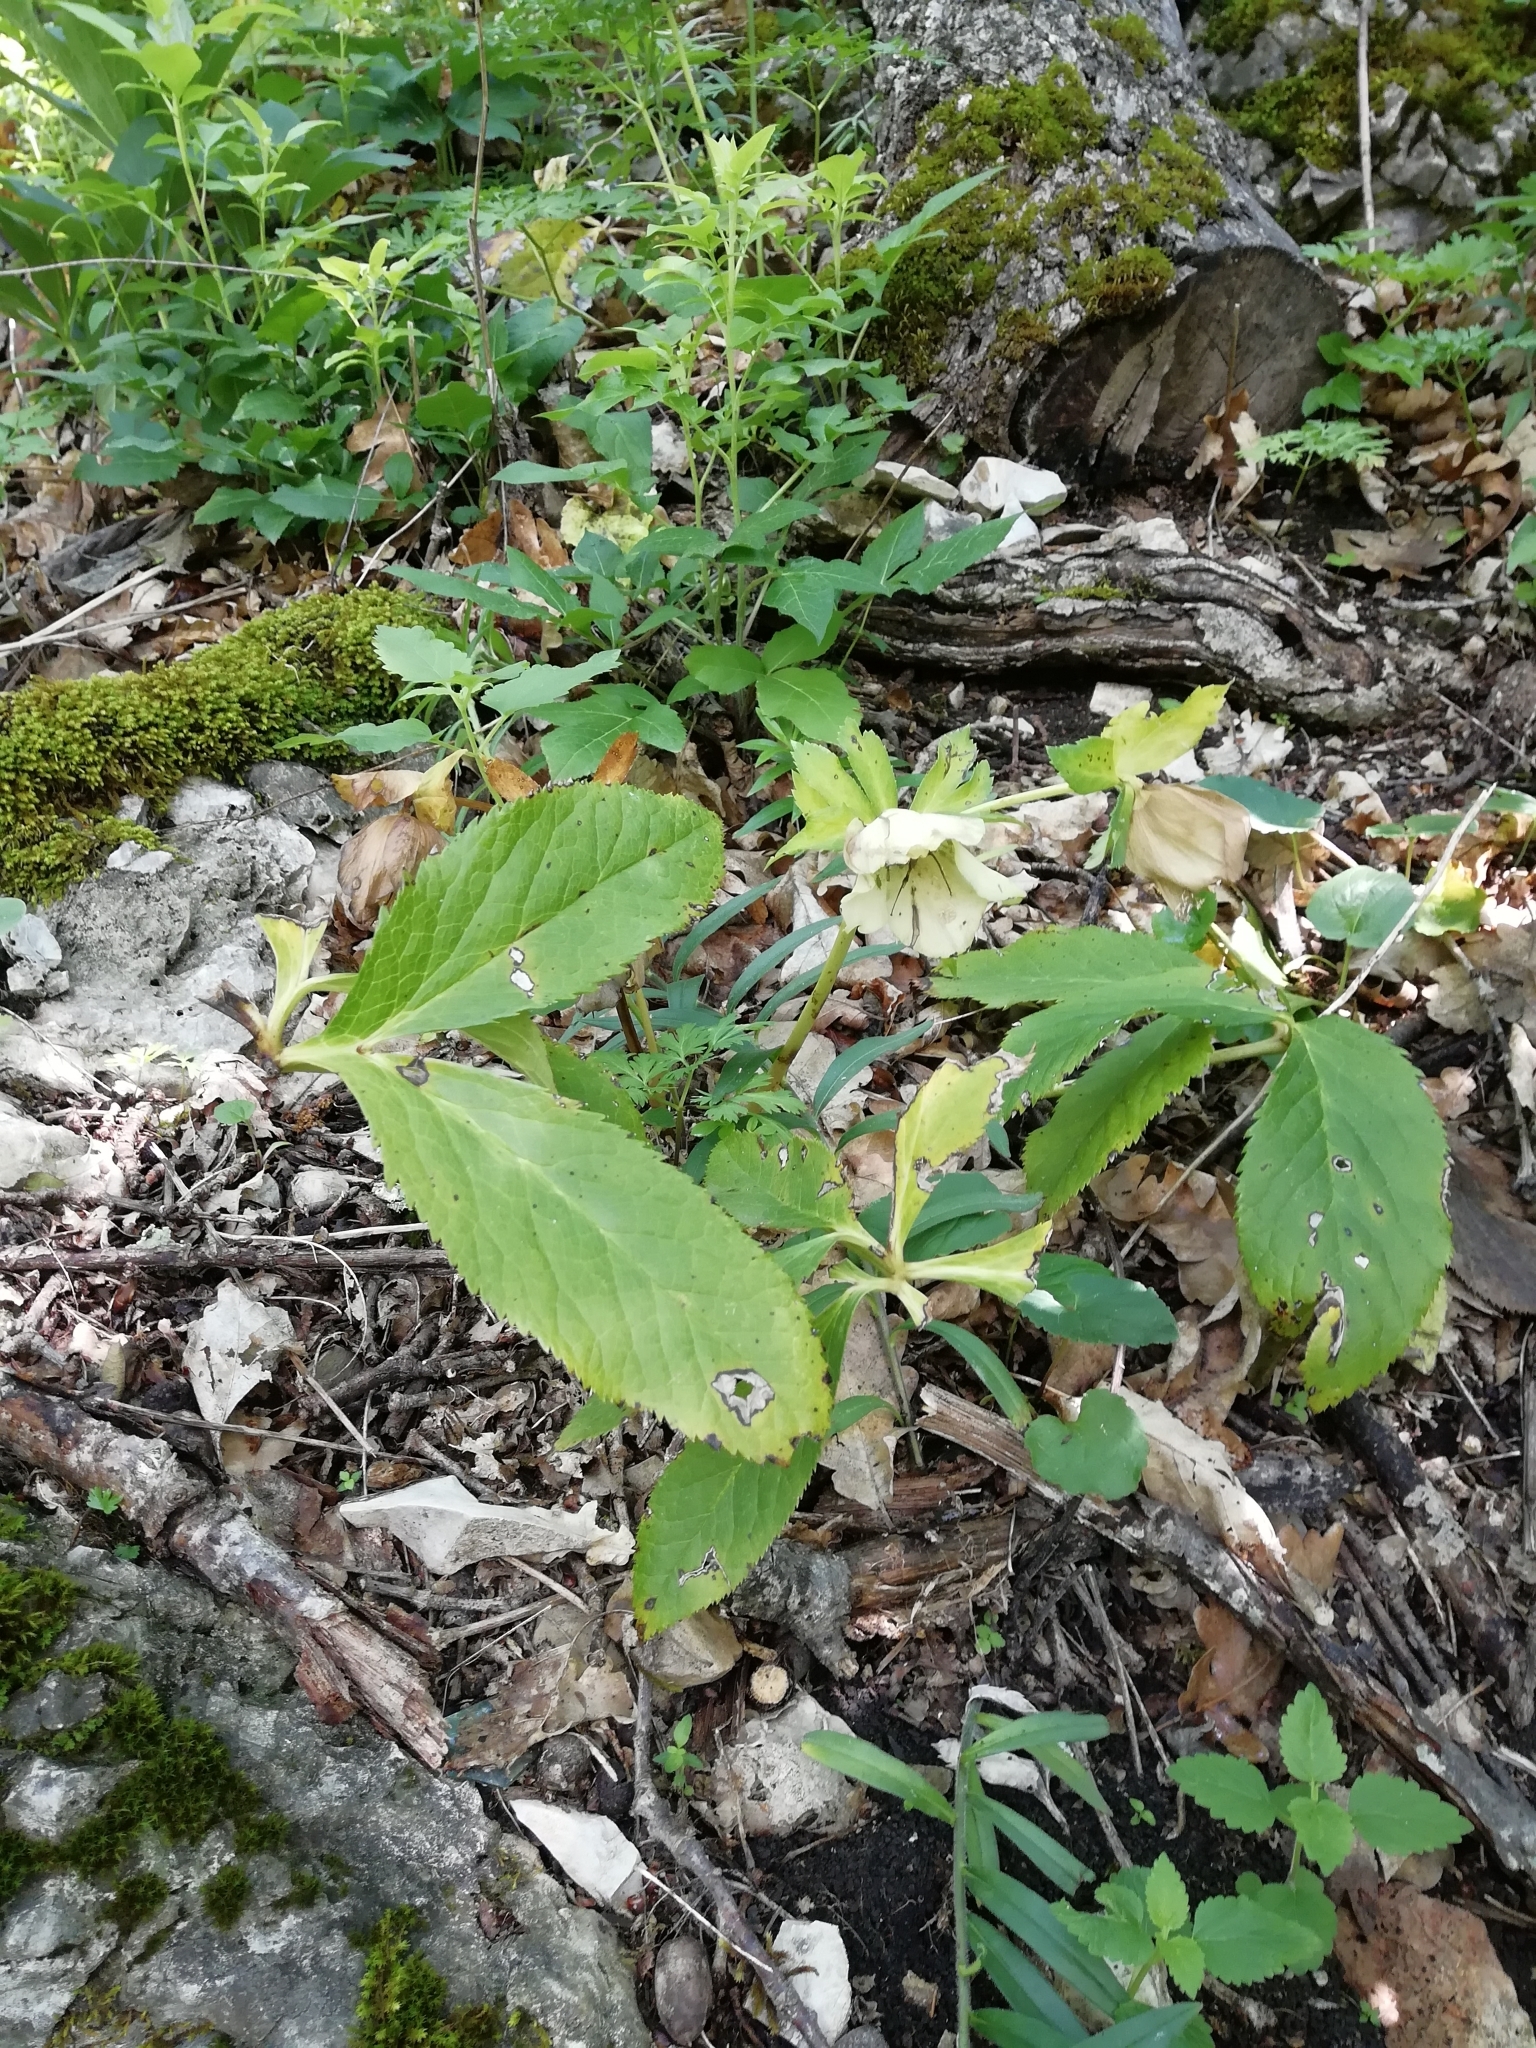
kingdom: Plantae
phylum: Tracheophyta
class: Magnoliopsida
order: Ranunculales
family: Ranunculaceae
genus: Helleborus
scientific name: Helleborus orientalis
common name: Lenten-rose
